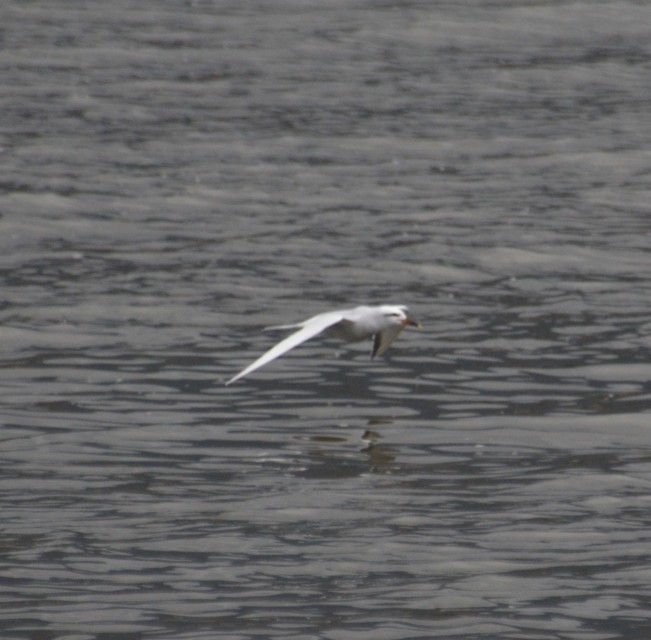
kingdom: Animalia
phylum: Chordata
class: Aves
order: Charadriiformes
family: Laridae
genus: Sterna
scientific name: Sterna trudeaui
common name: Snowy-crowned tern
